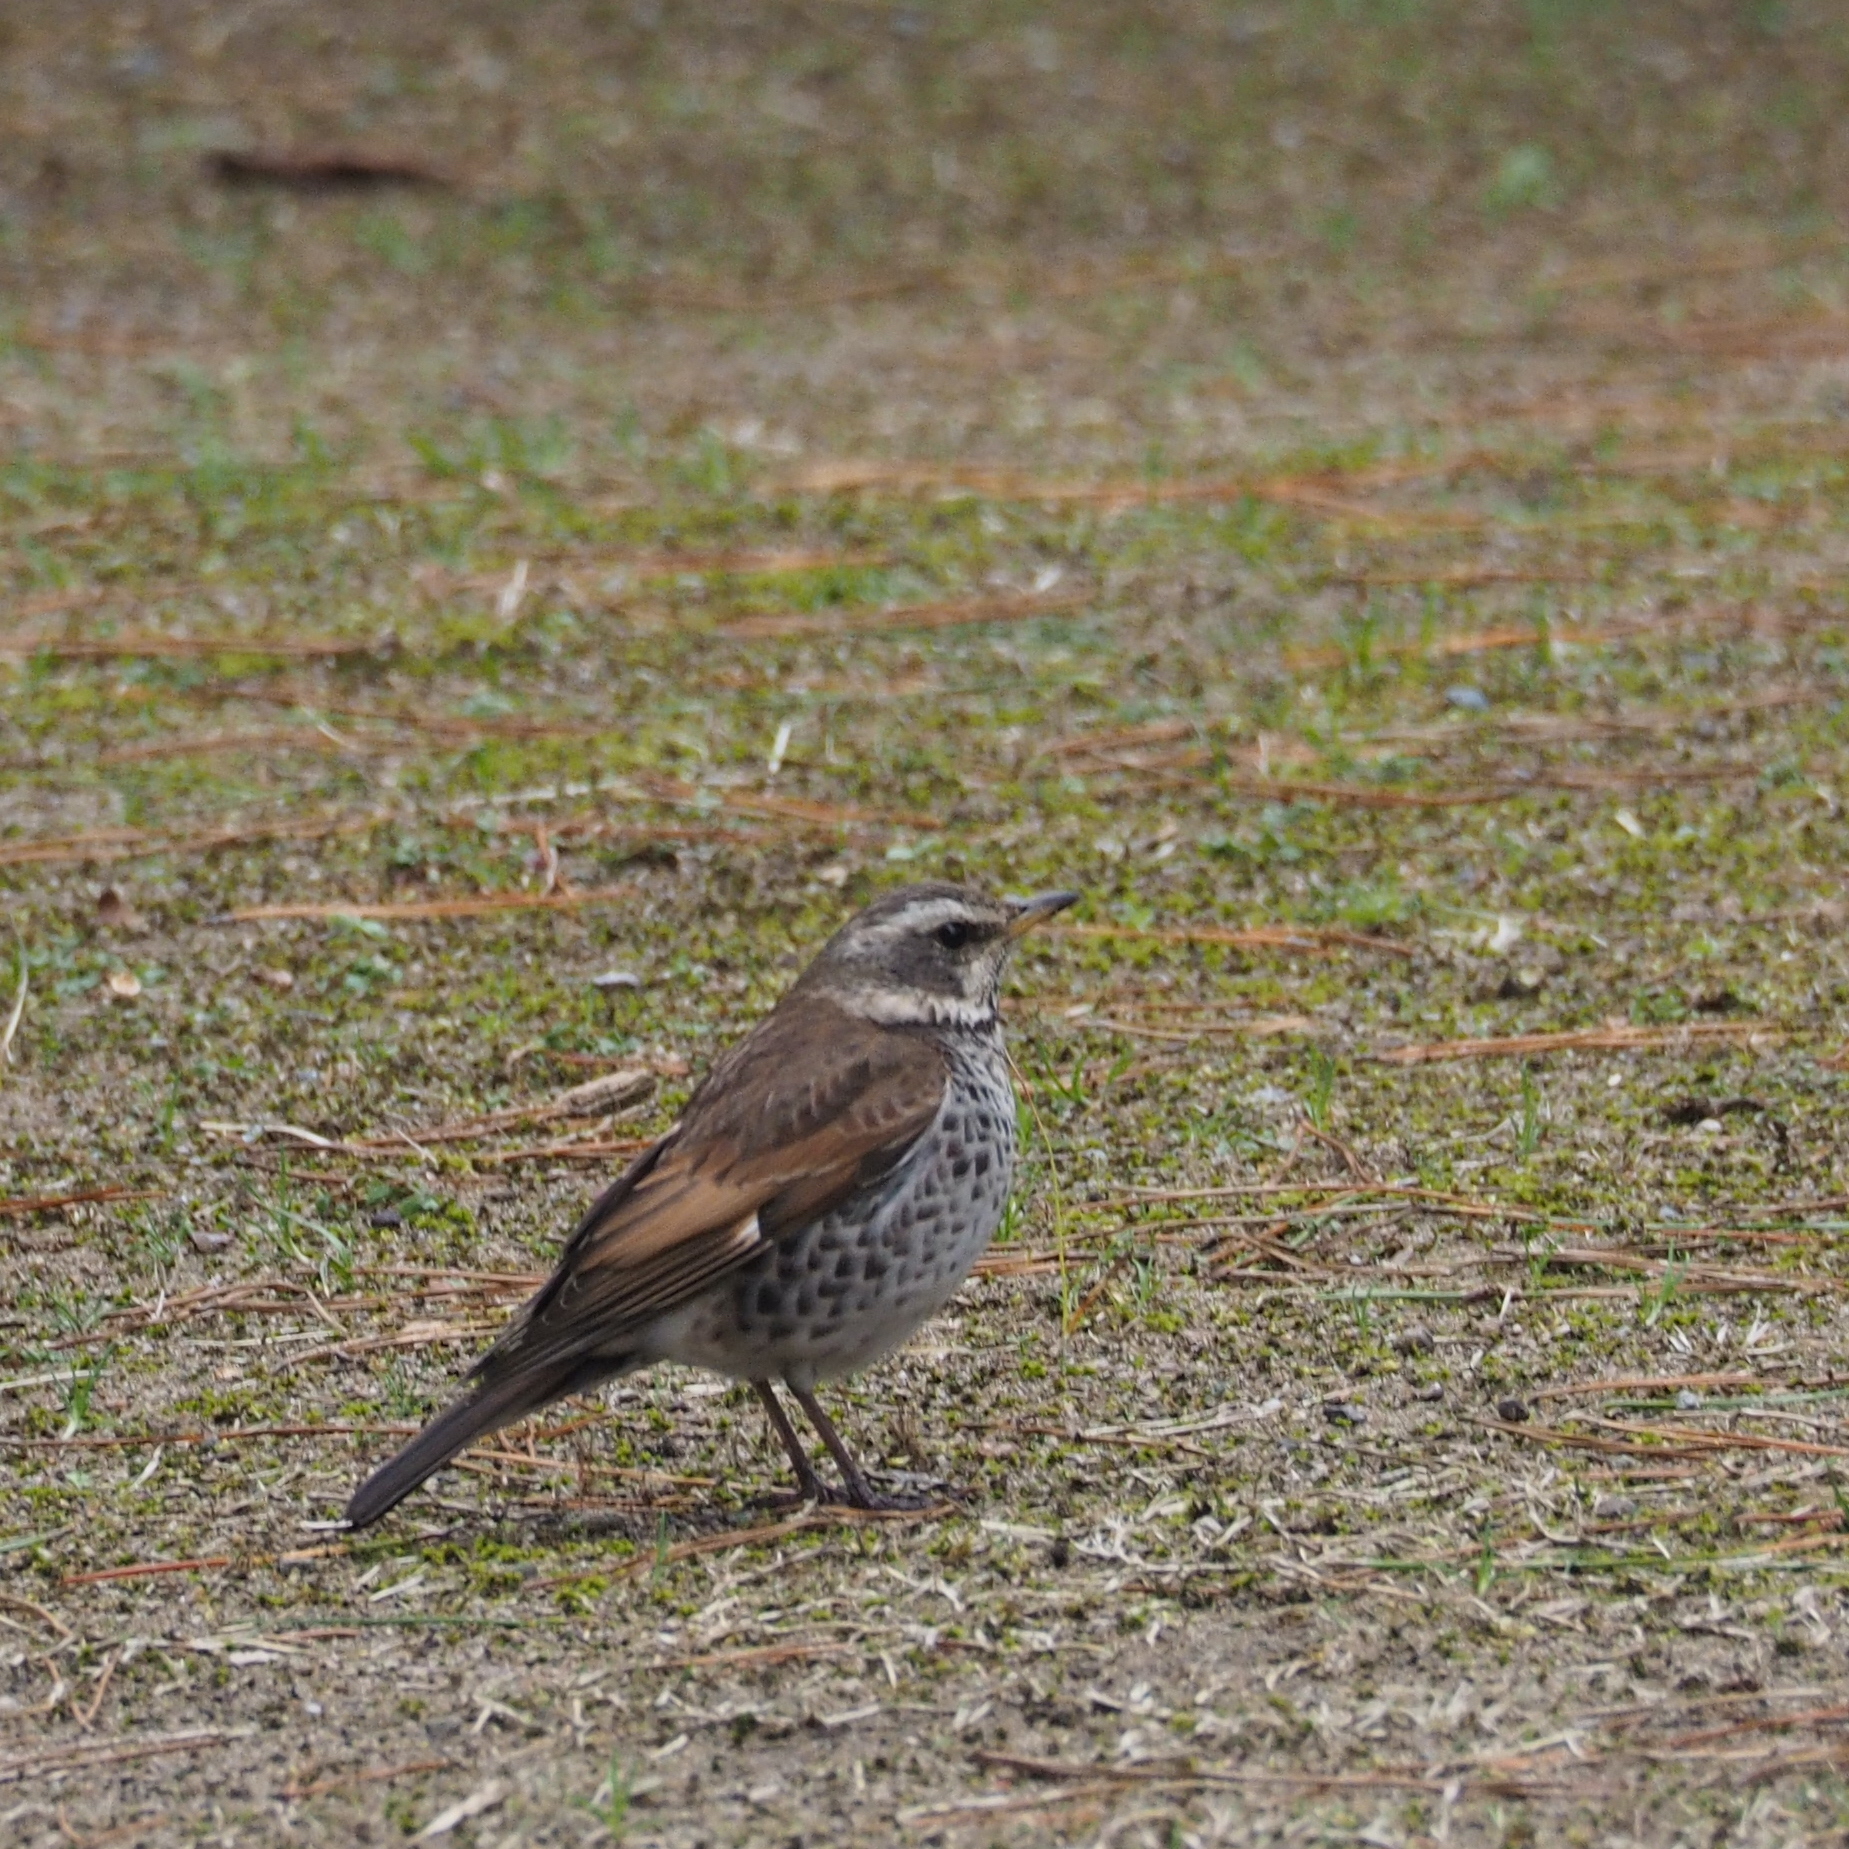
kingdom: Animalia
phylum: Chordata
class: Aves
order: Passeriformes
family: Turdidae
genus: Turdus
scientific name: Turdus eunomus
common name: Dusky thrush
